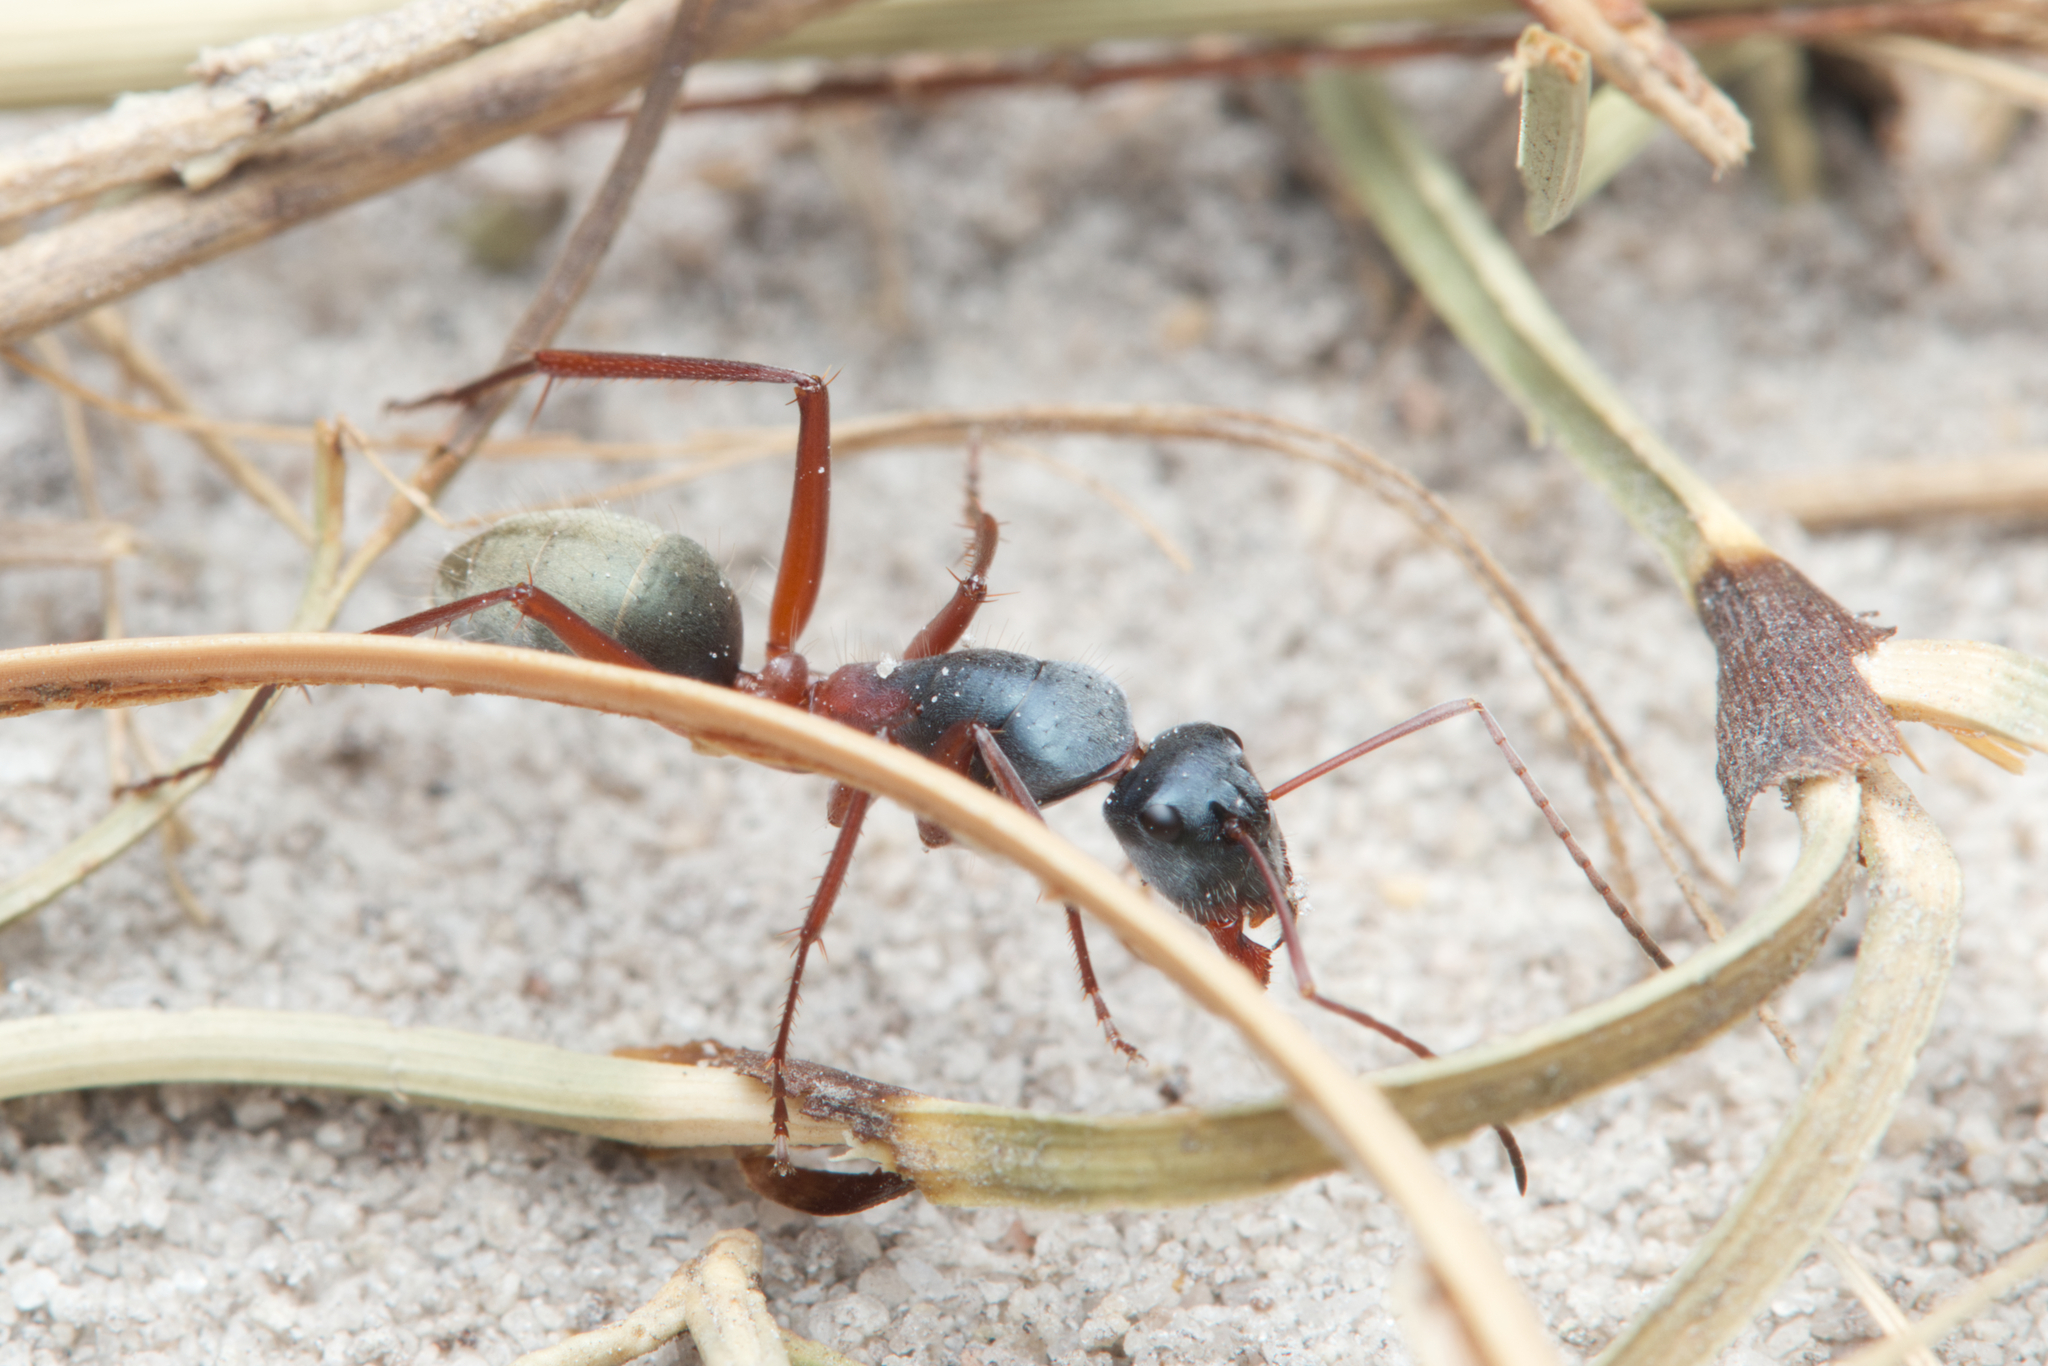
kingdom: Animalia
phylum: Arthropoda
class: Insecta
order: Hymenoptera
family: Formicidae
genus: Camponotus
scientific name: Camponotus dromas
